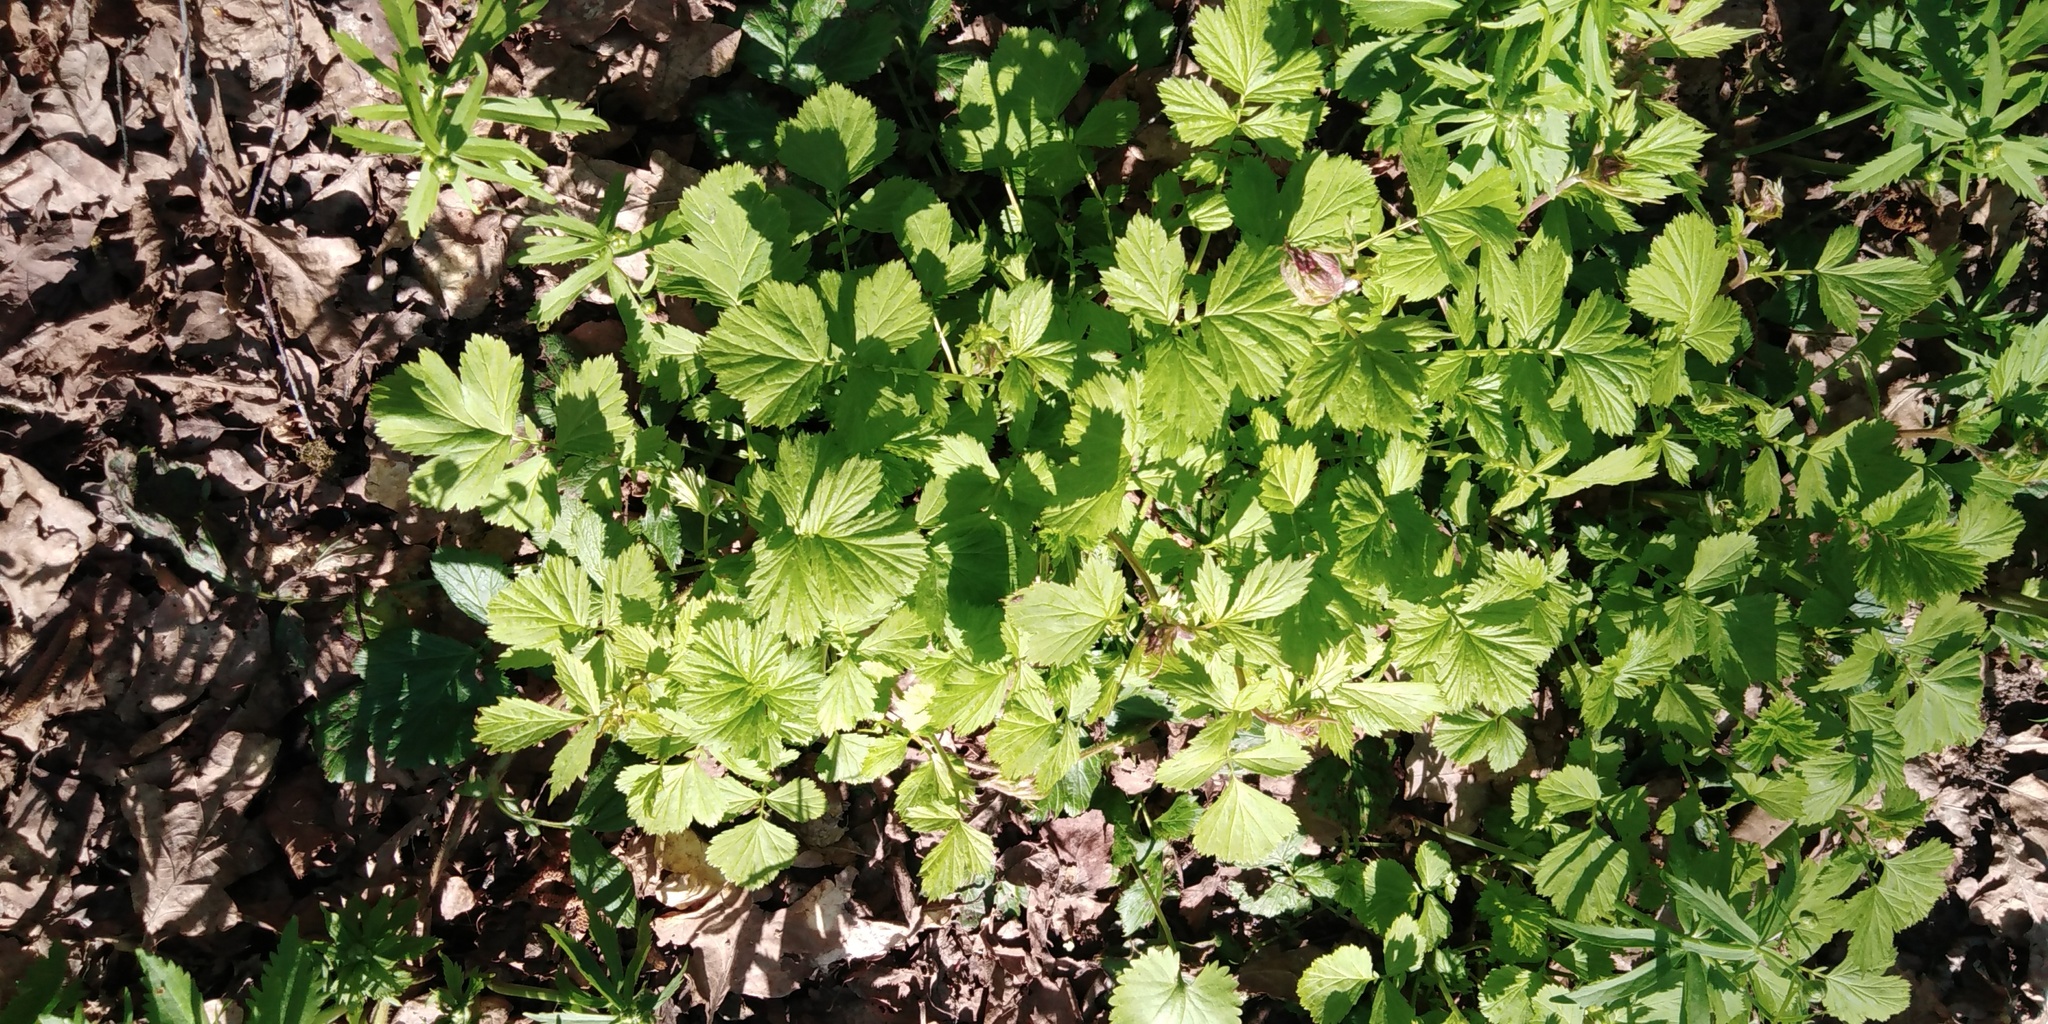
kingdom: Plantae
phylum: Tracheophyta
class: Magnoliopsida
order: Rosales
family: Rosaceae
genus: Geum
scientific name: Geum rivale
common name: Water avens
